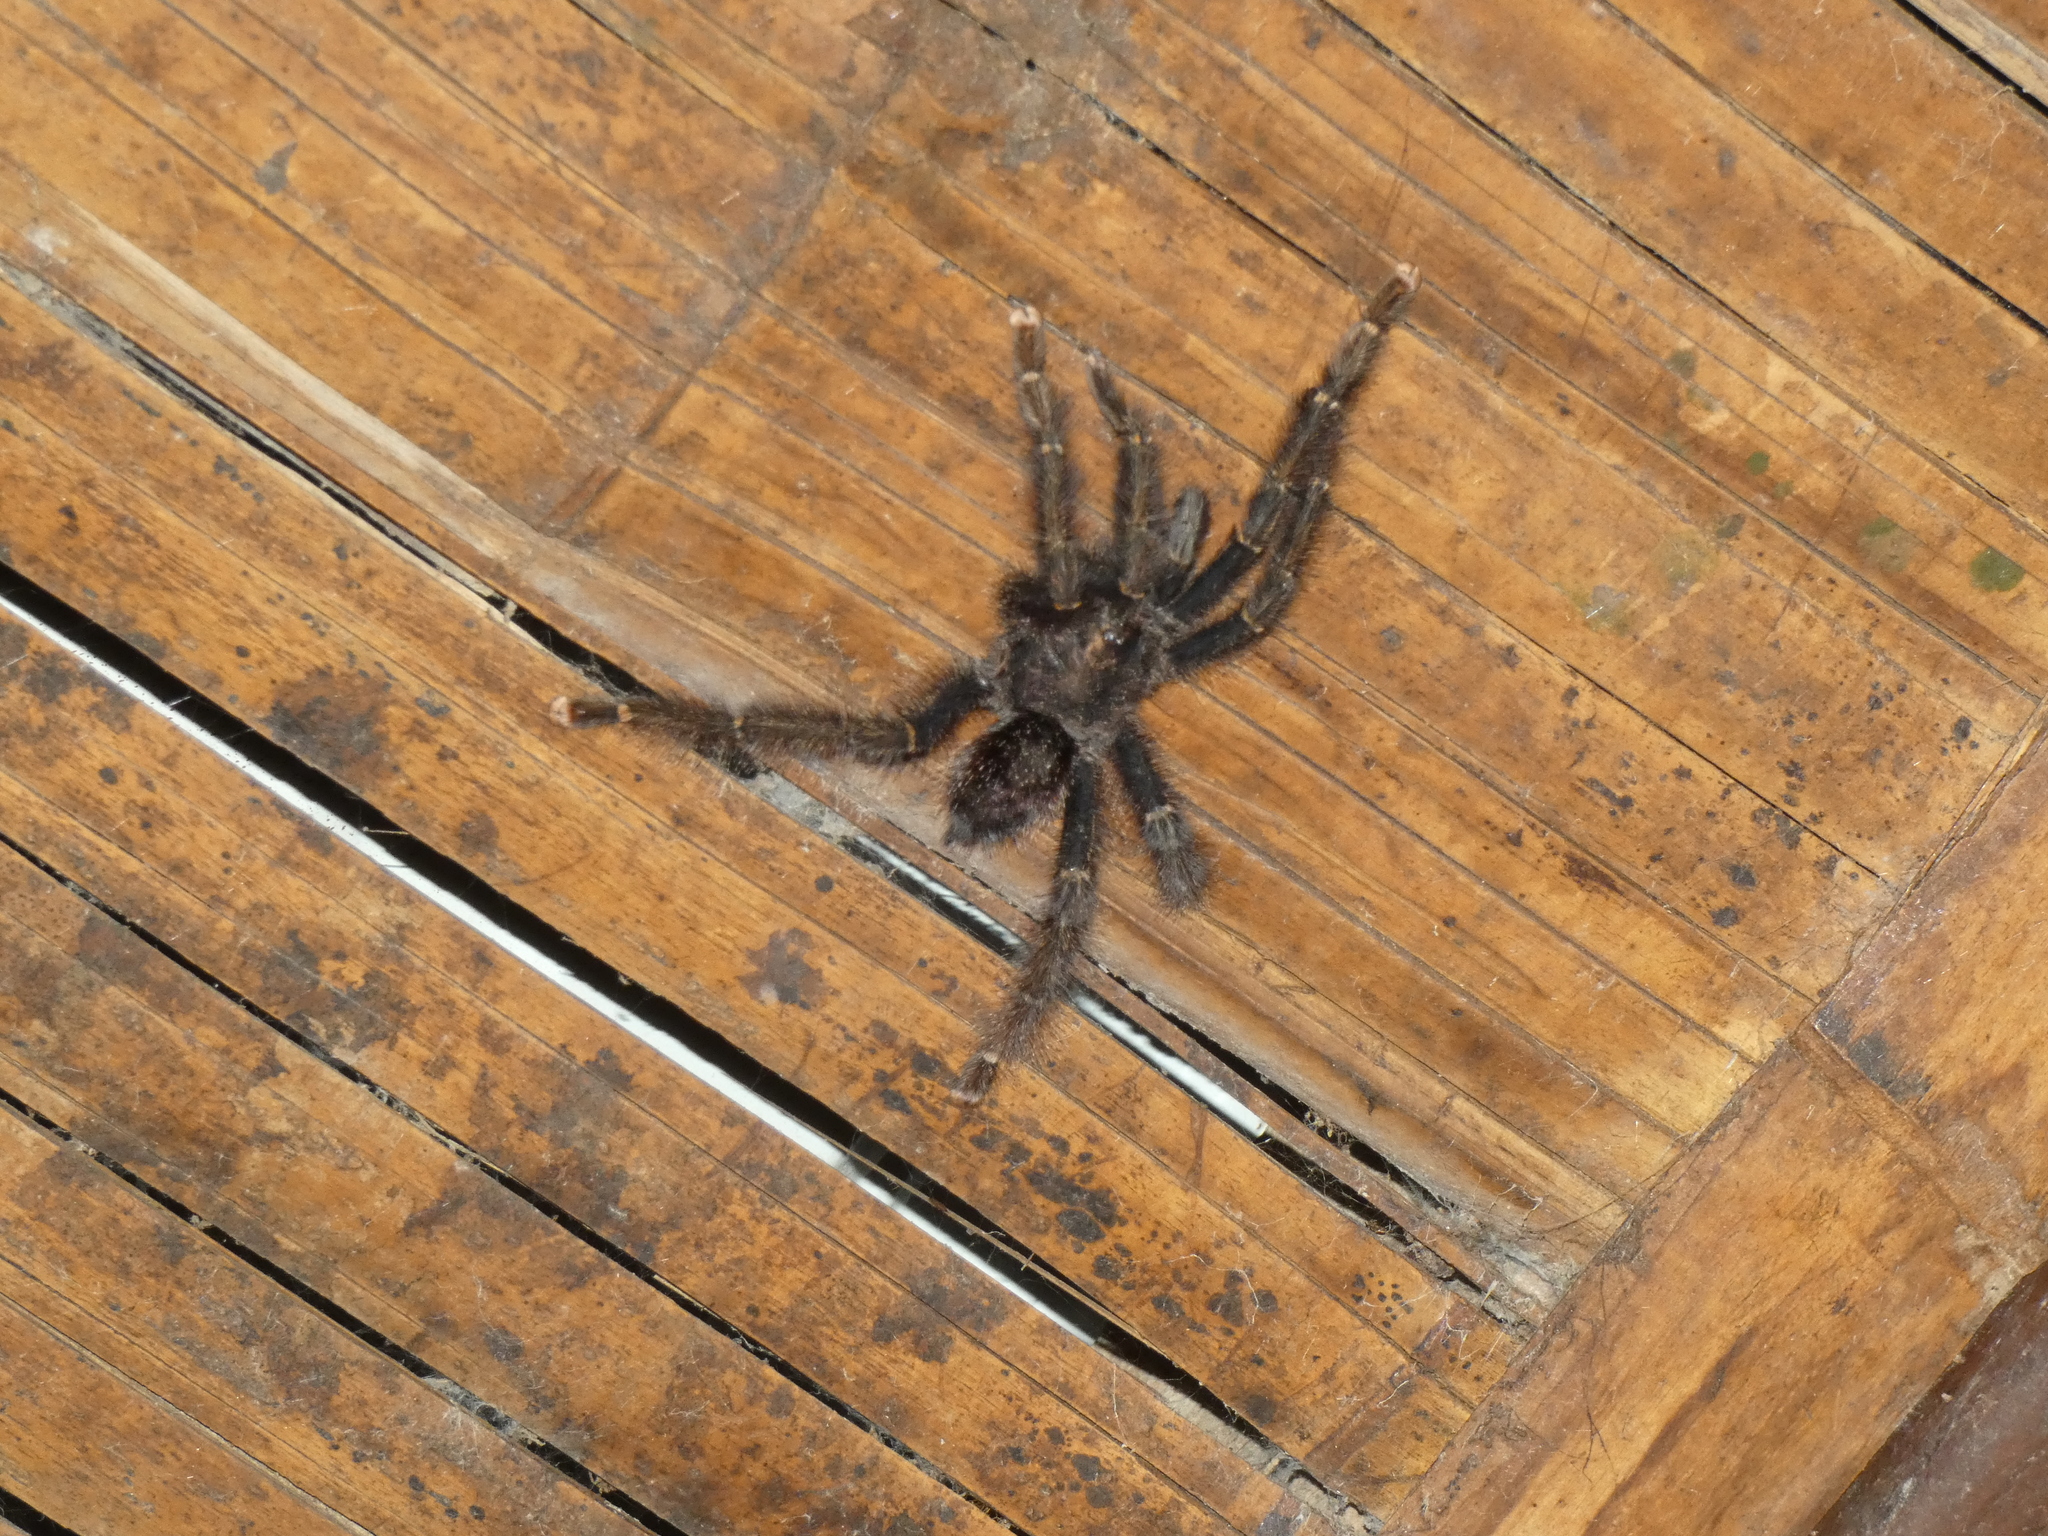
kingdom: Animalia
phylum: Arthropoda
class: Arachnida
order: Araneae
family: Theraphosidae
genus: Avicularia
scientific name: Avicularia juruensis
